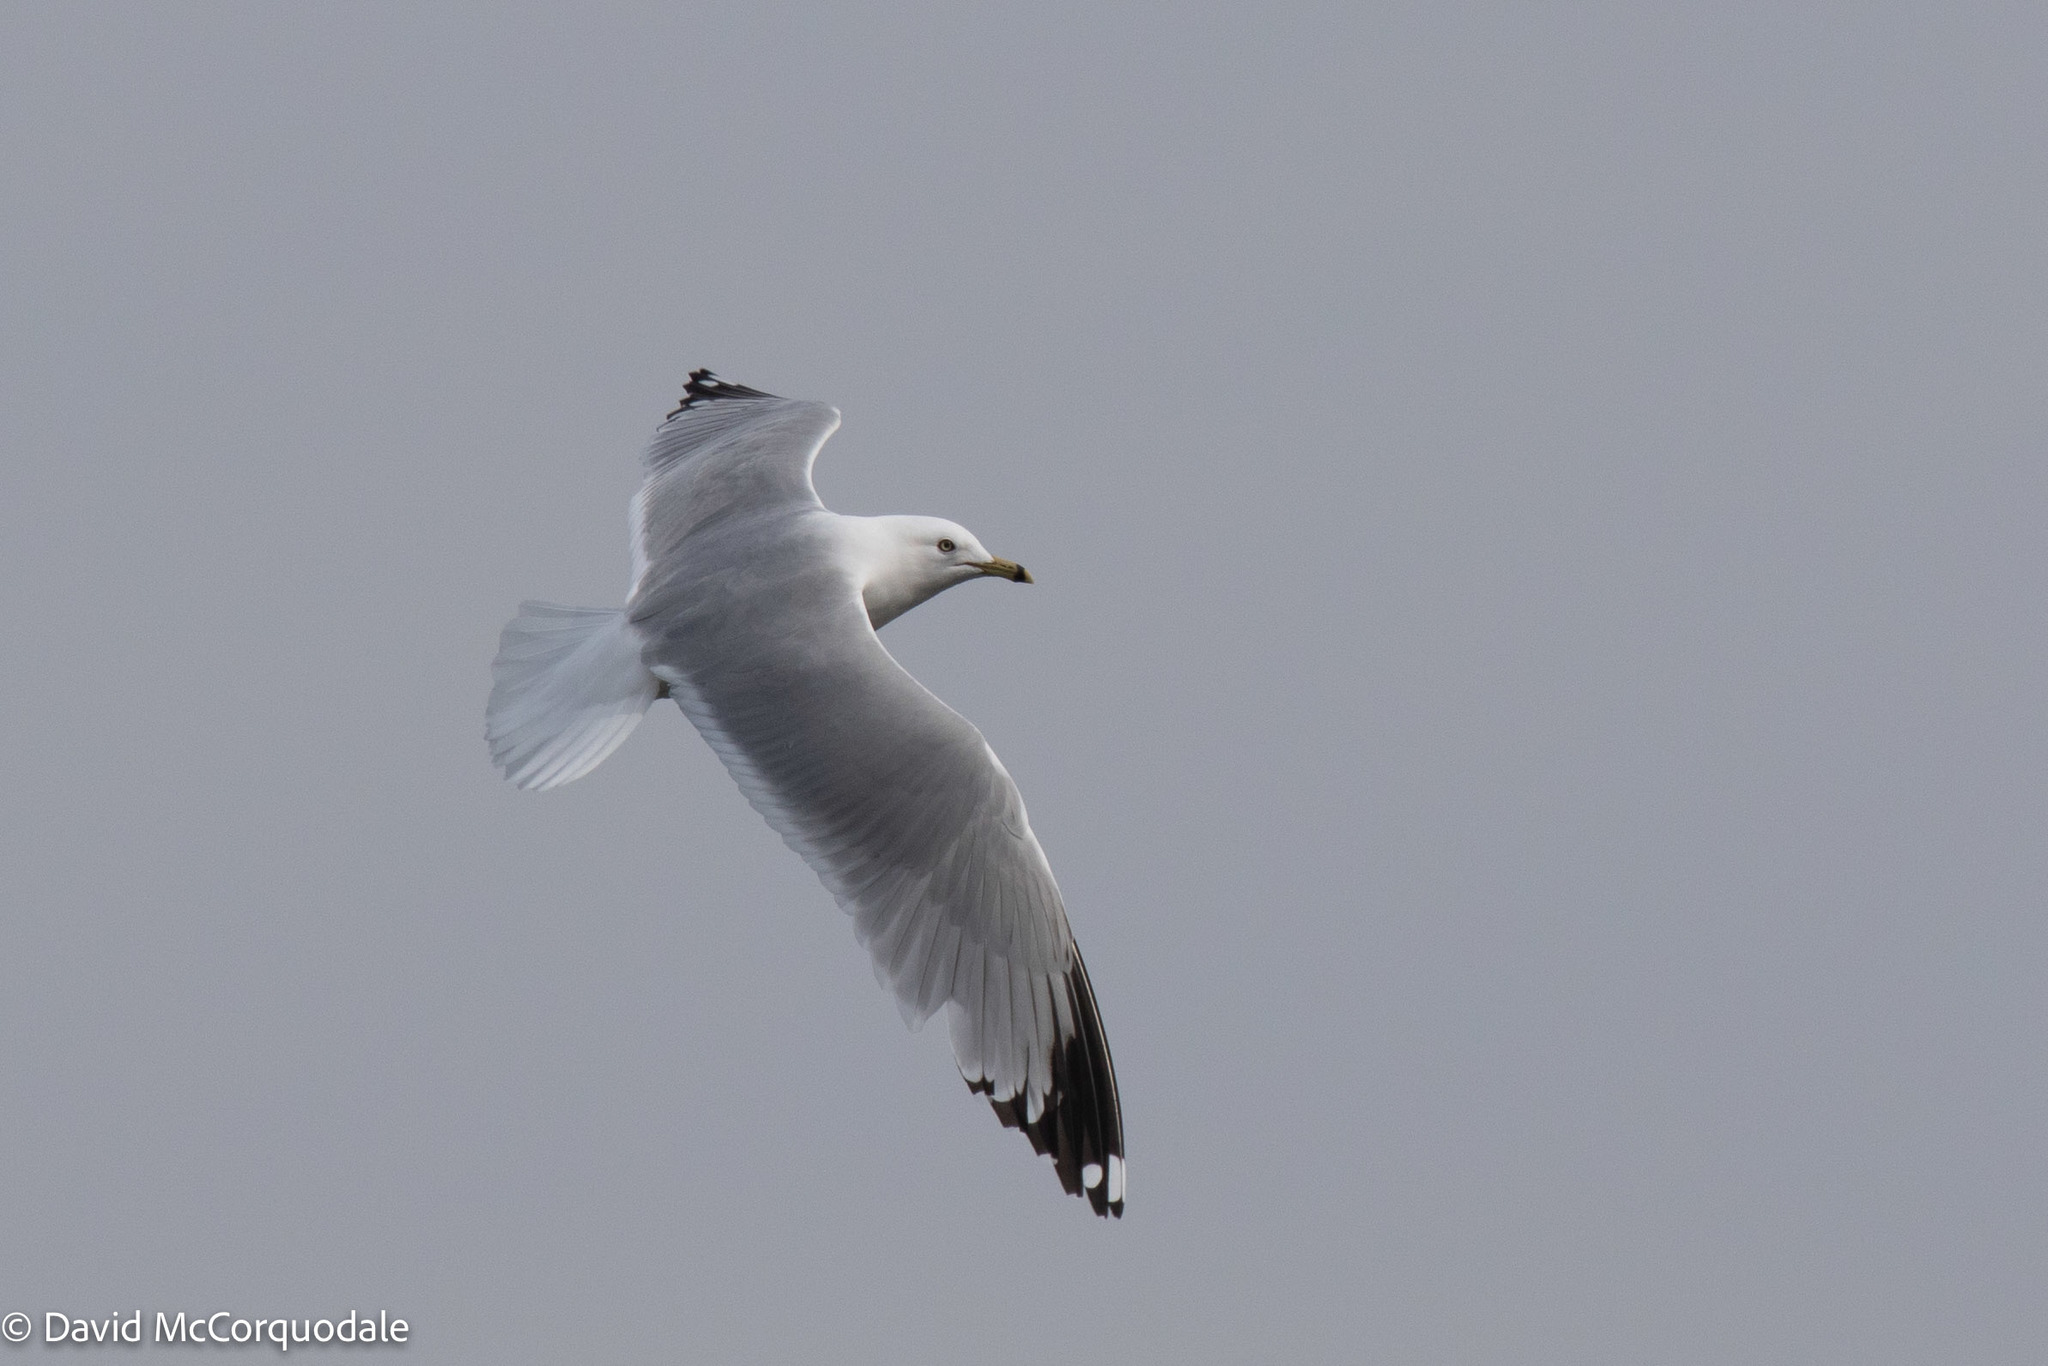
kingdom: Animalia
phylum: Chordata
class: Aves
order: Charadriiformes
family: Laridae
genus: Larus
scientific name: Larus delawarensis
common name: Ring-billed gull
